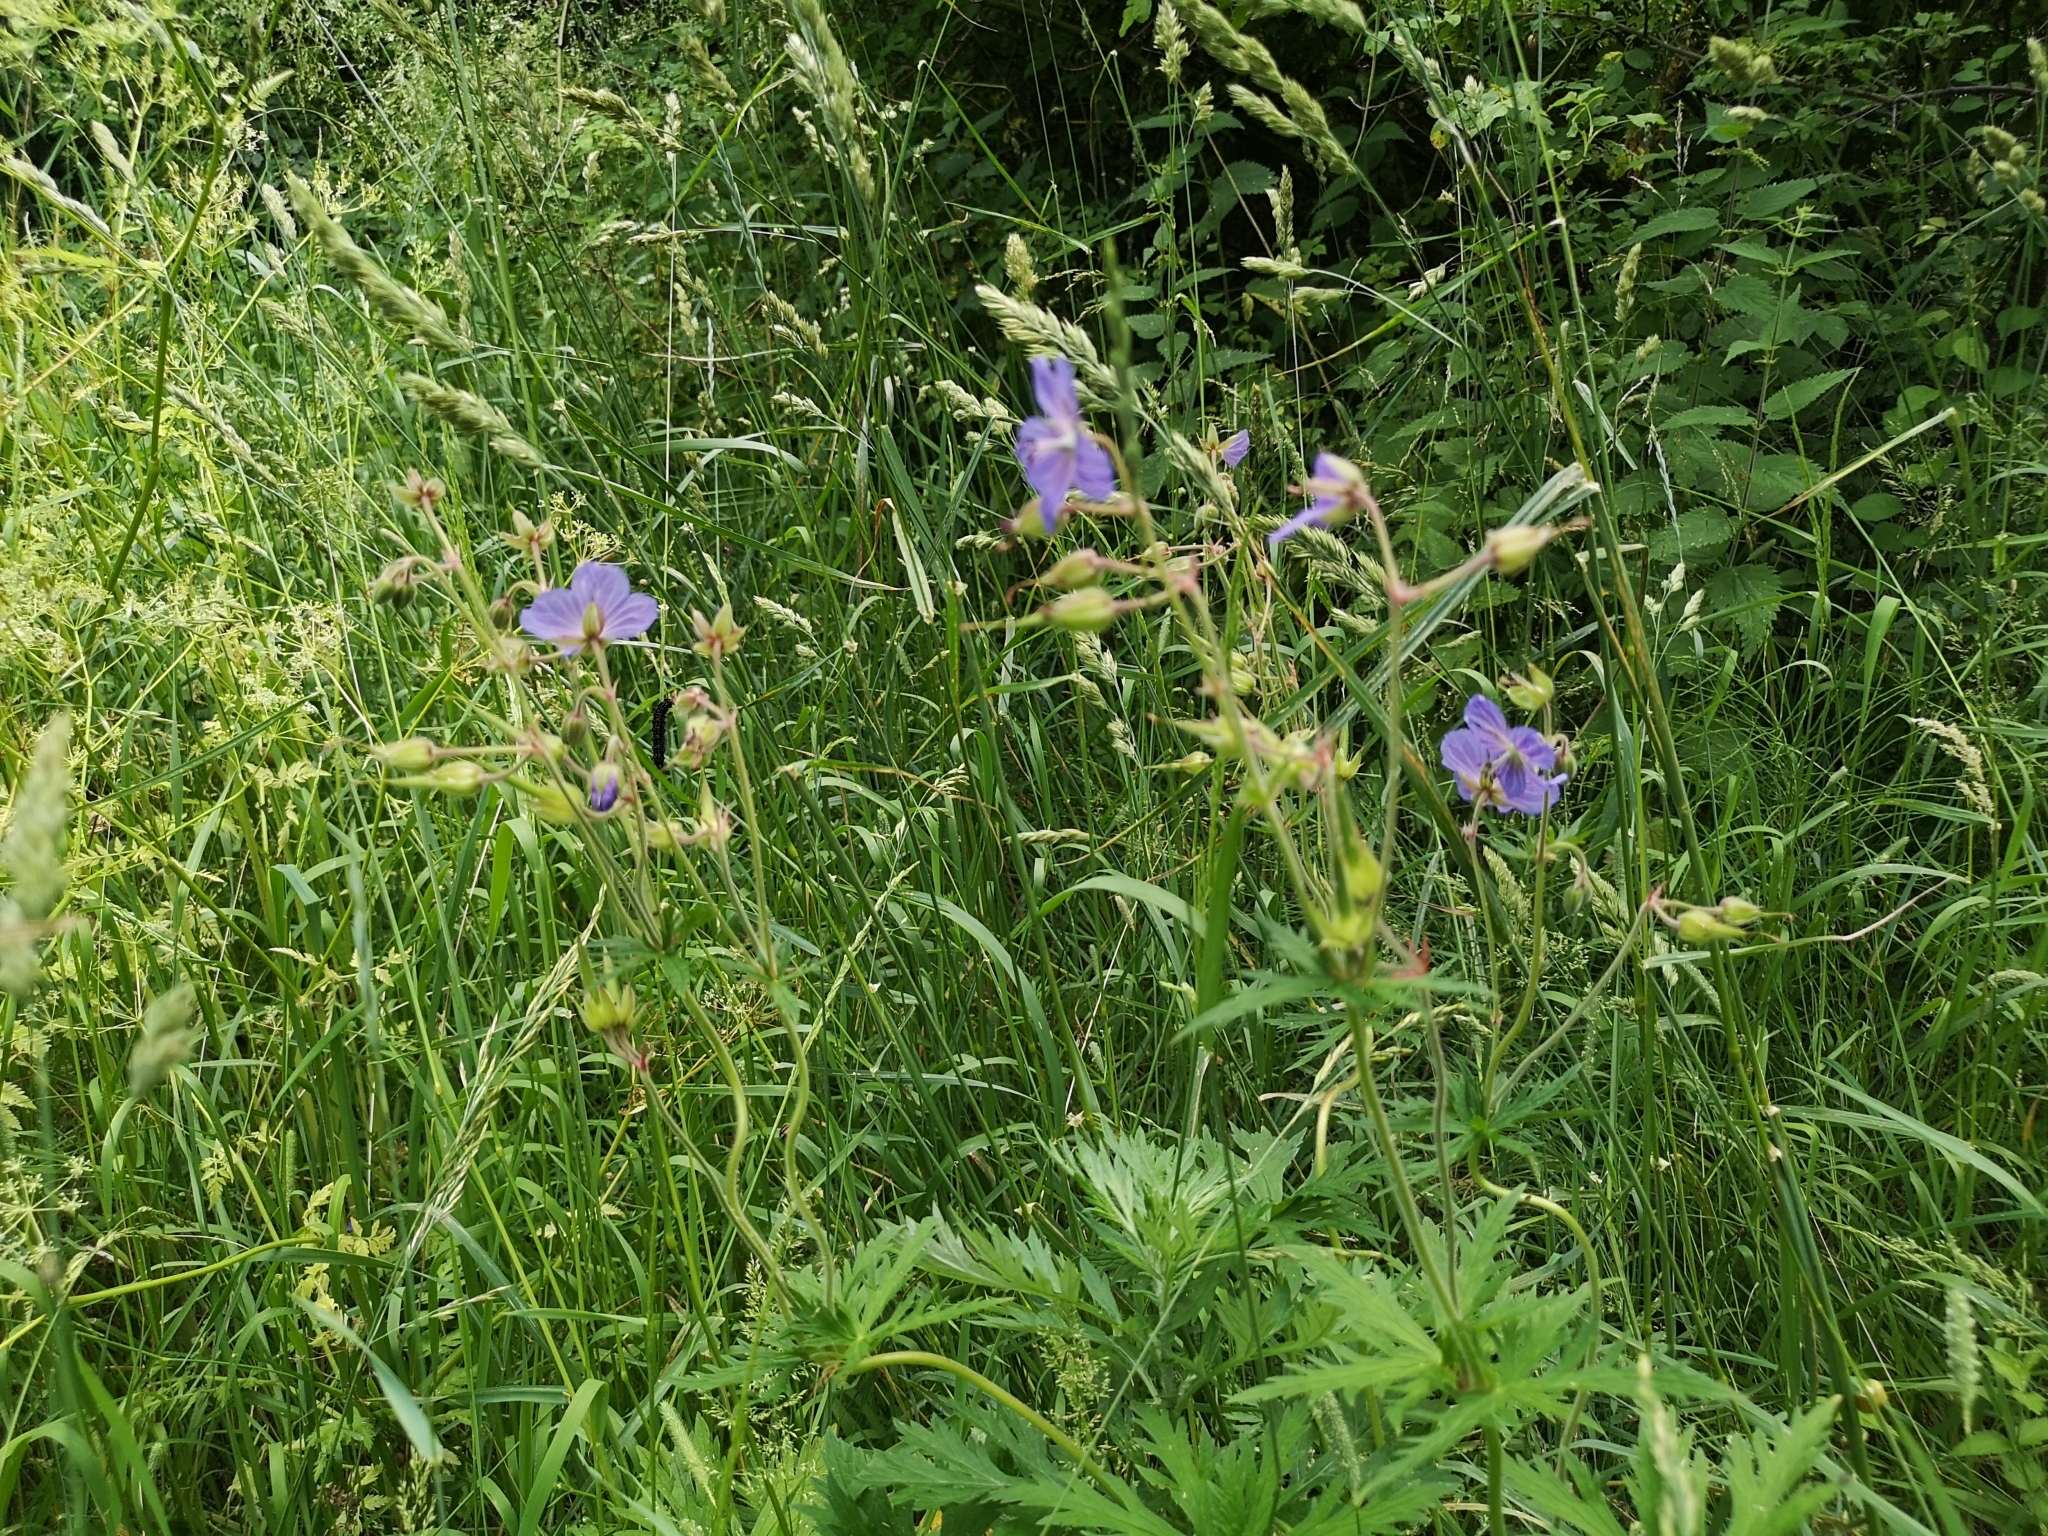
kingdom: Plantae
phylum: Tracheophyta
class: Magnoliopsida
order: Geraniales
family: Geraniaceae
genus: Geranium
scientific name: Geranium pratense
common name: Meadow crane's-bill
